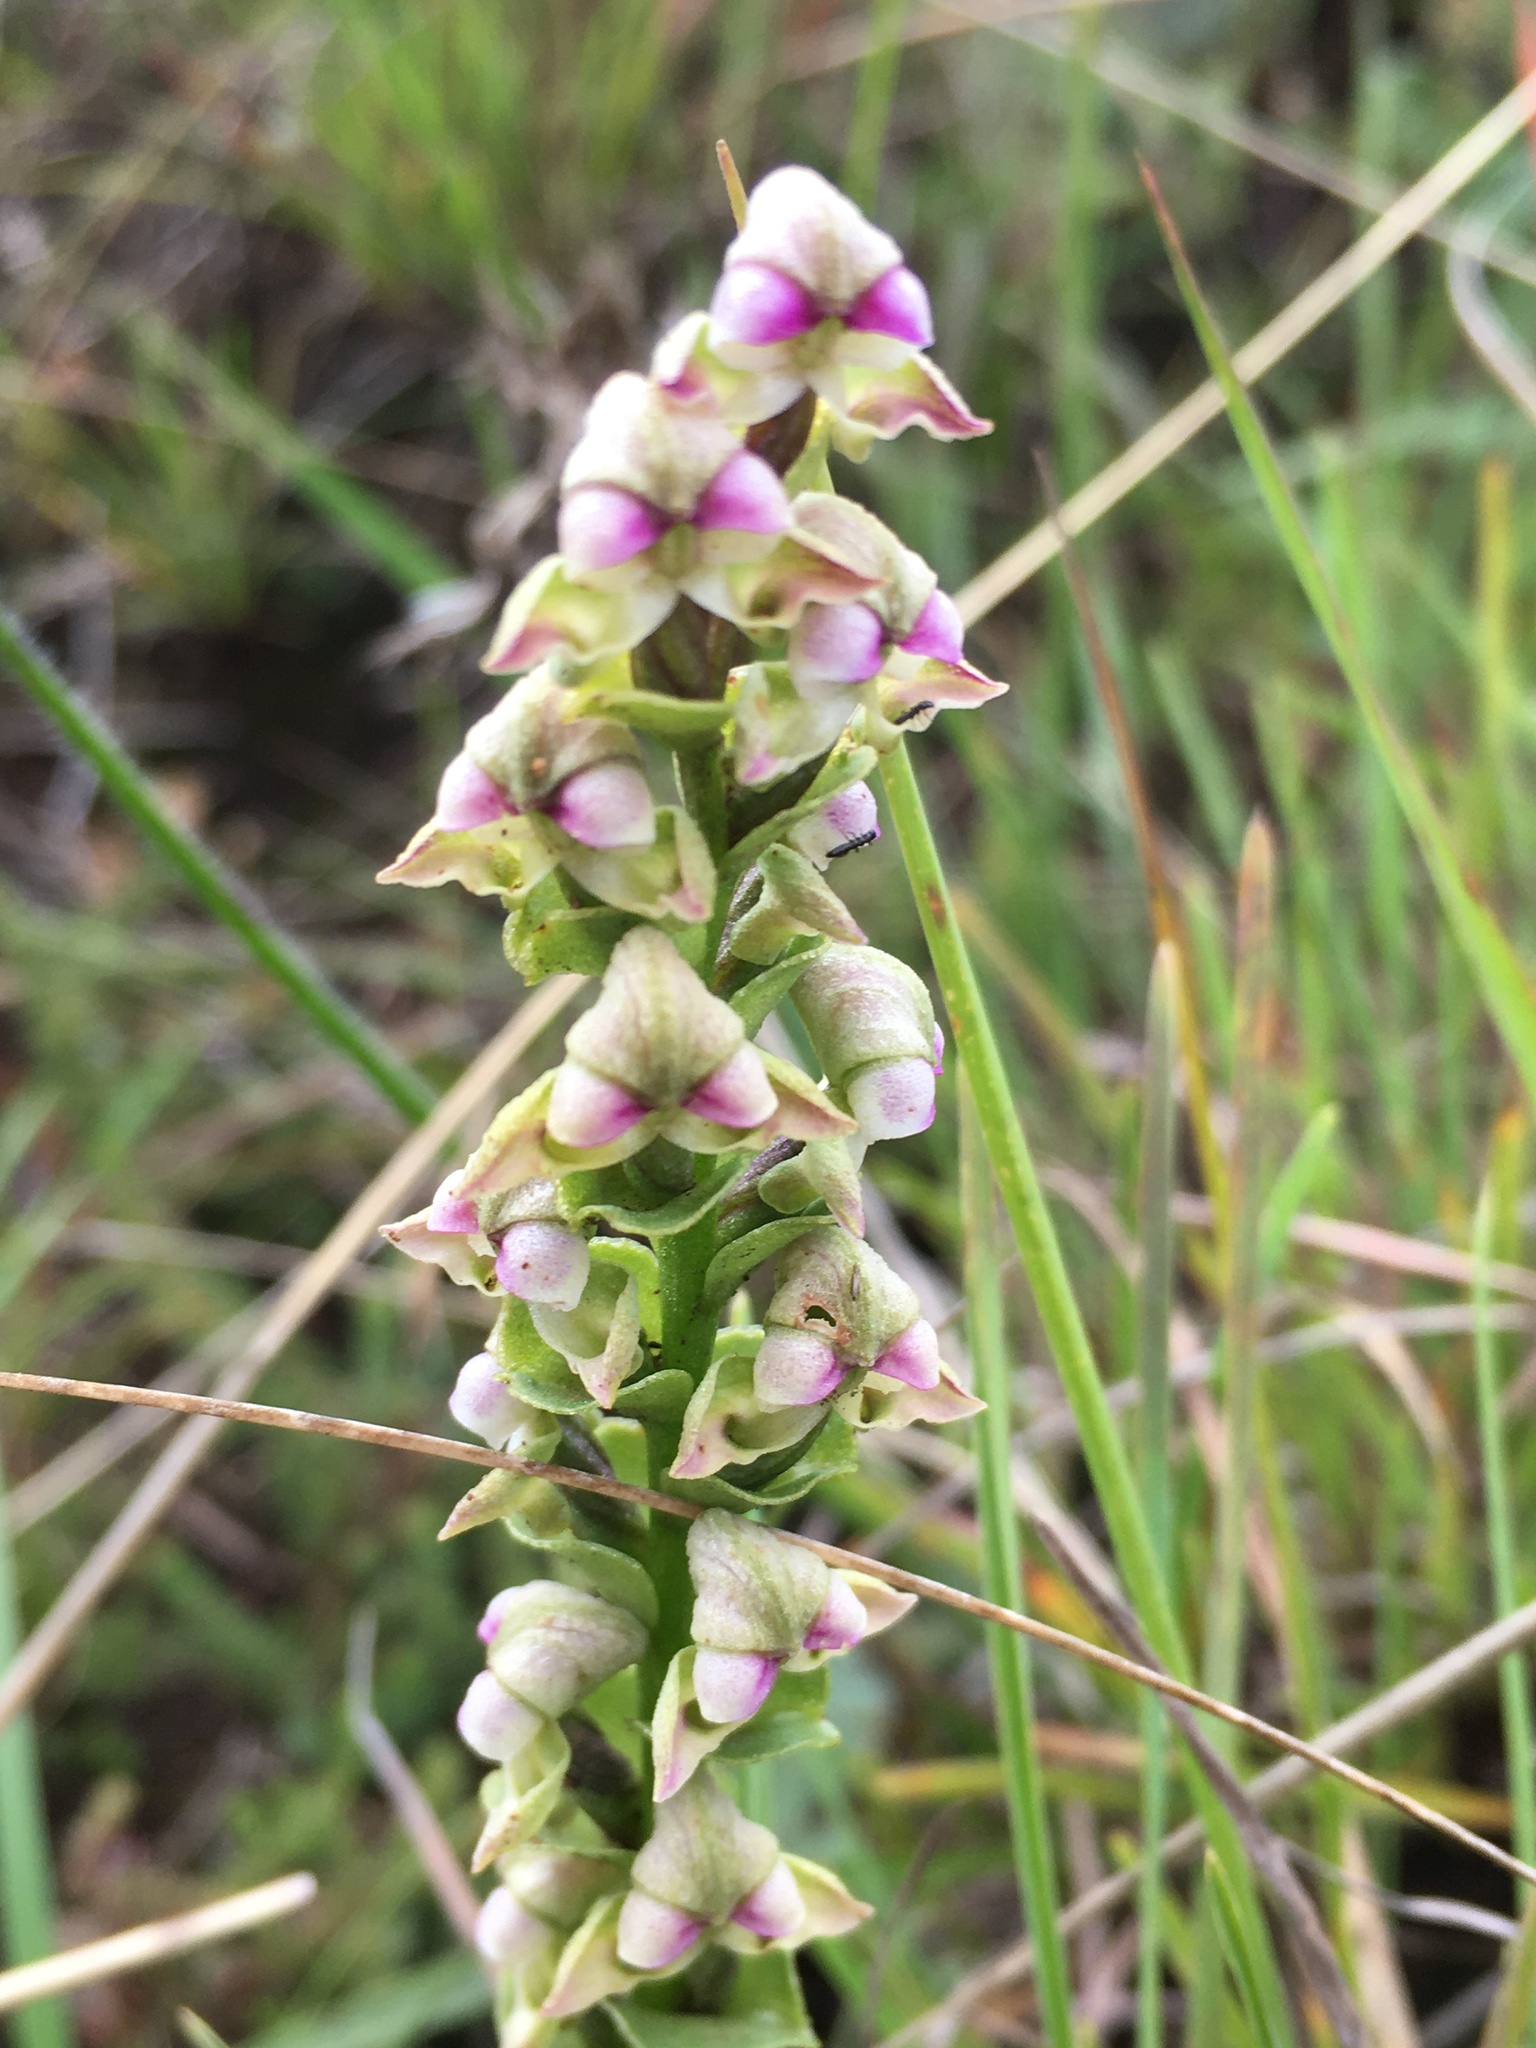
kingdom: Plantae
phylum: Tracheophyta
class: Liliopsida
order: Asparagales
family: Orchidaceae
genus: Disperis
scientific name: Disperis cardiophora
